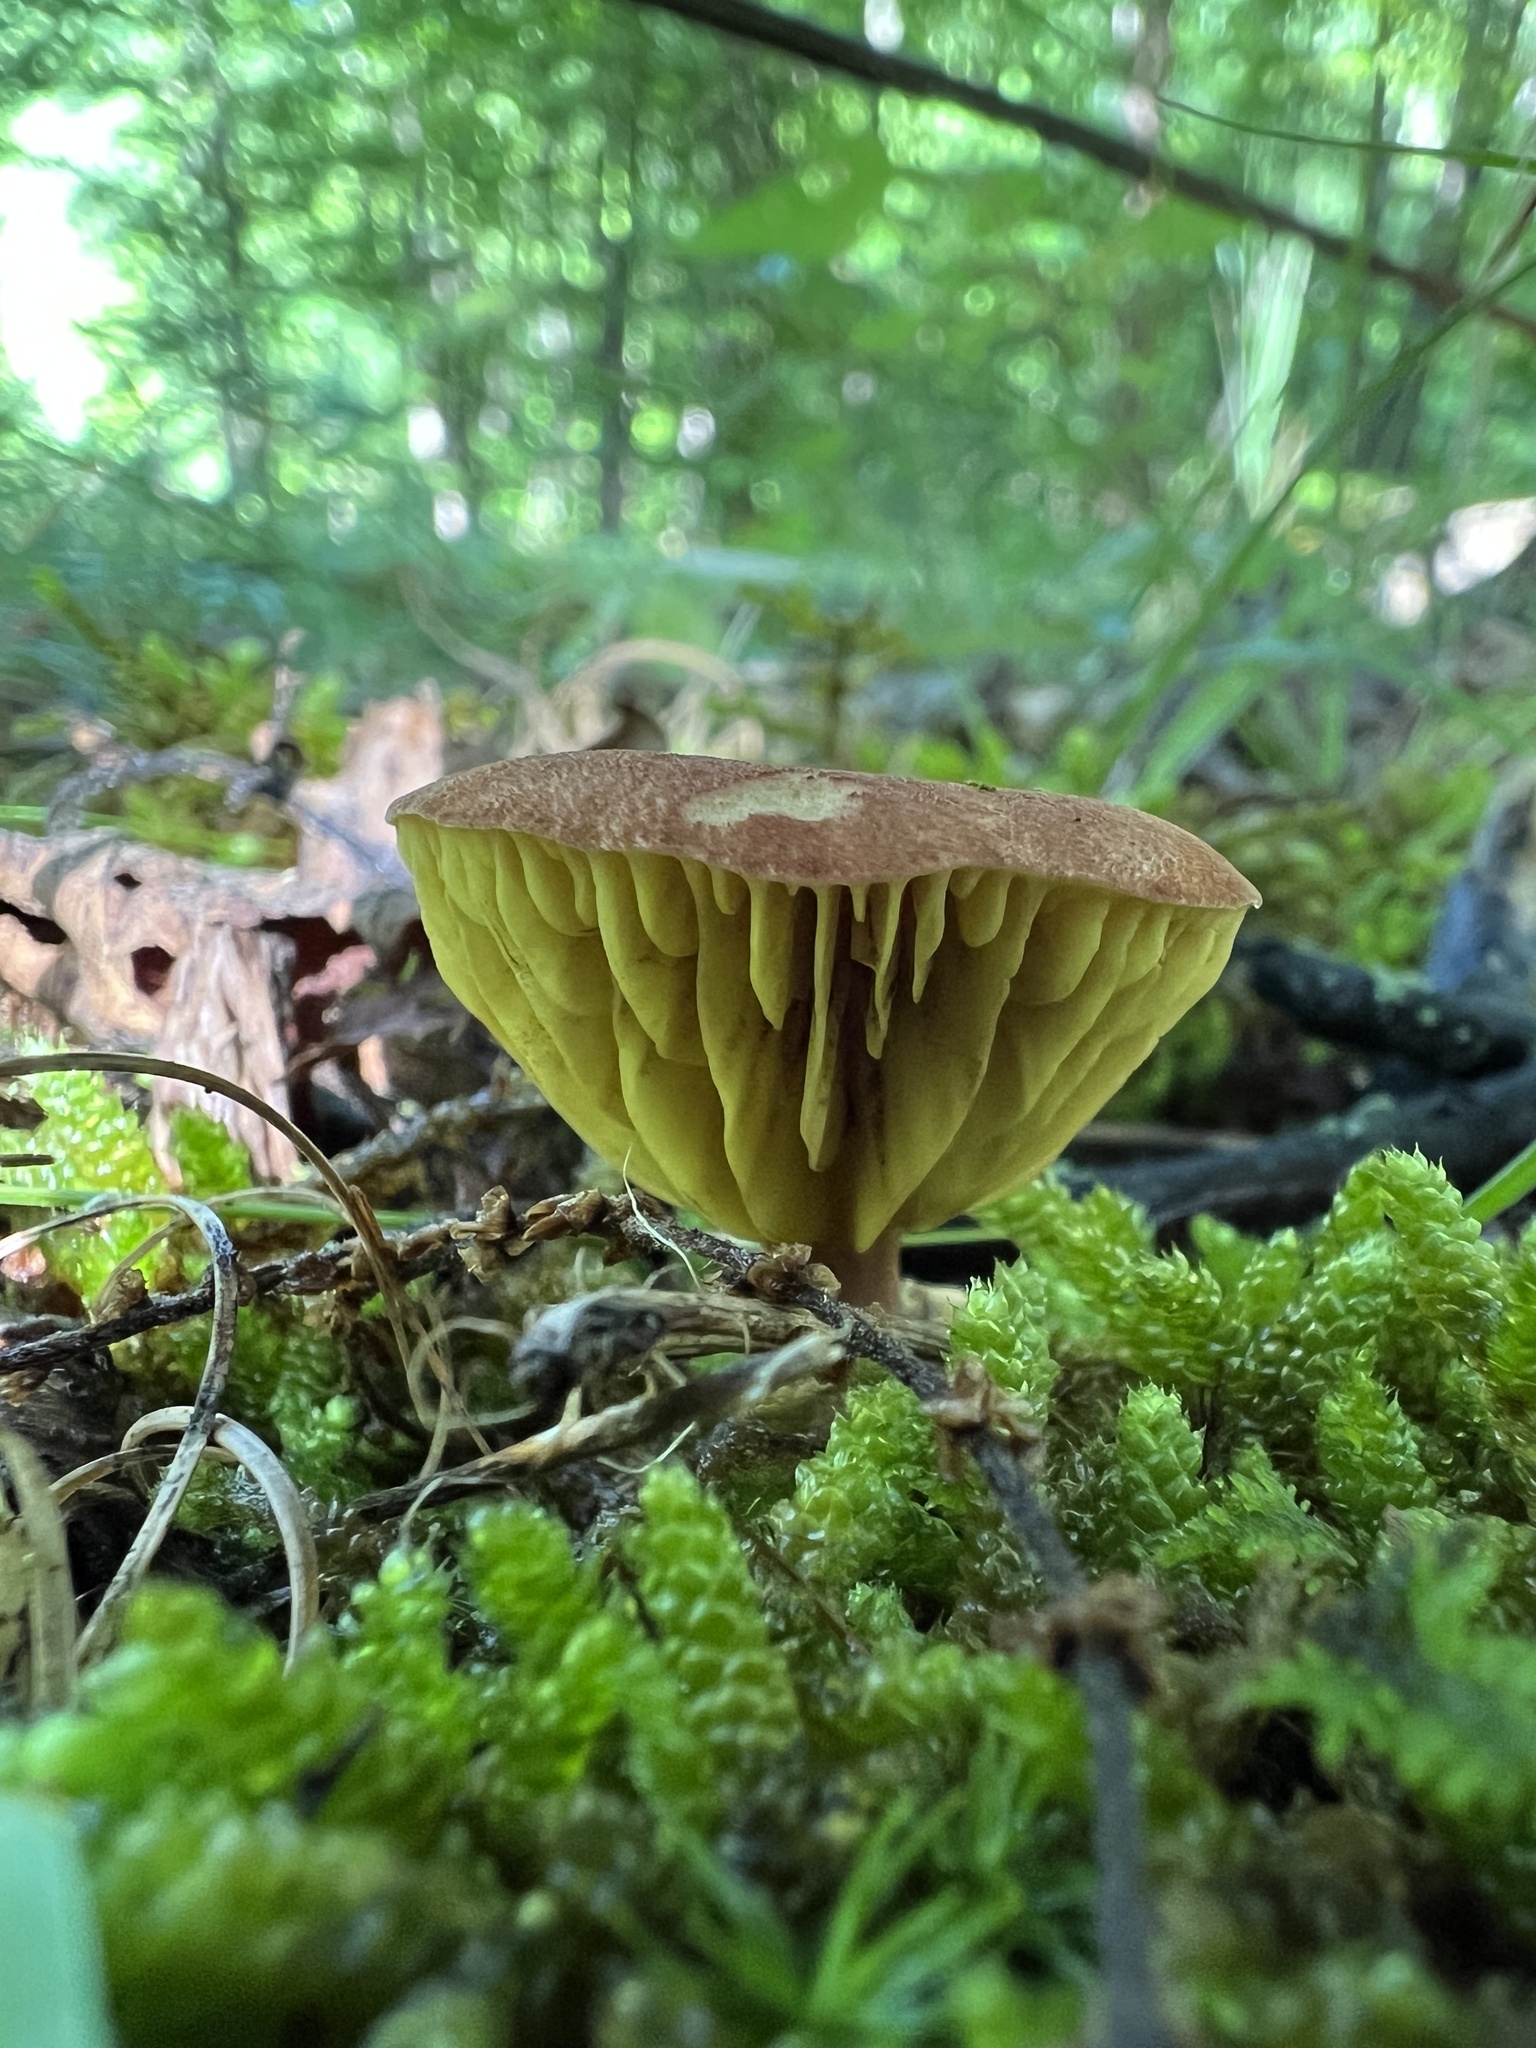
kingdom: Fungi
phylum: Basidiomycota
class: Agaricomycetes
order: Boletales
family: Boletaceae
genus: Phylloporus
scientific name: Phylloporus leucomycelinus
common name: Gilled bolete
